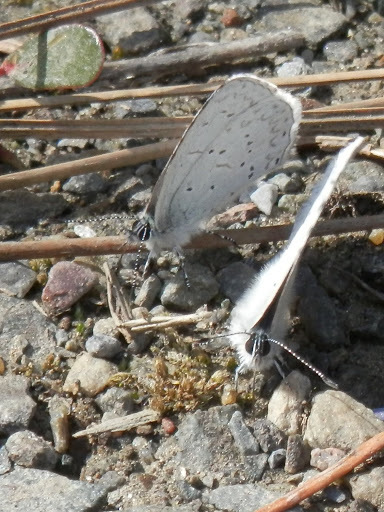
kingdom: Animalia
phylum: Arthropoda
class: Insecta
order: Lepidoptera
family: Lycaenidae
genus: Celastrina
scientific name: Celastrina ladon
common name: Spring azure
